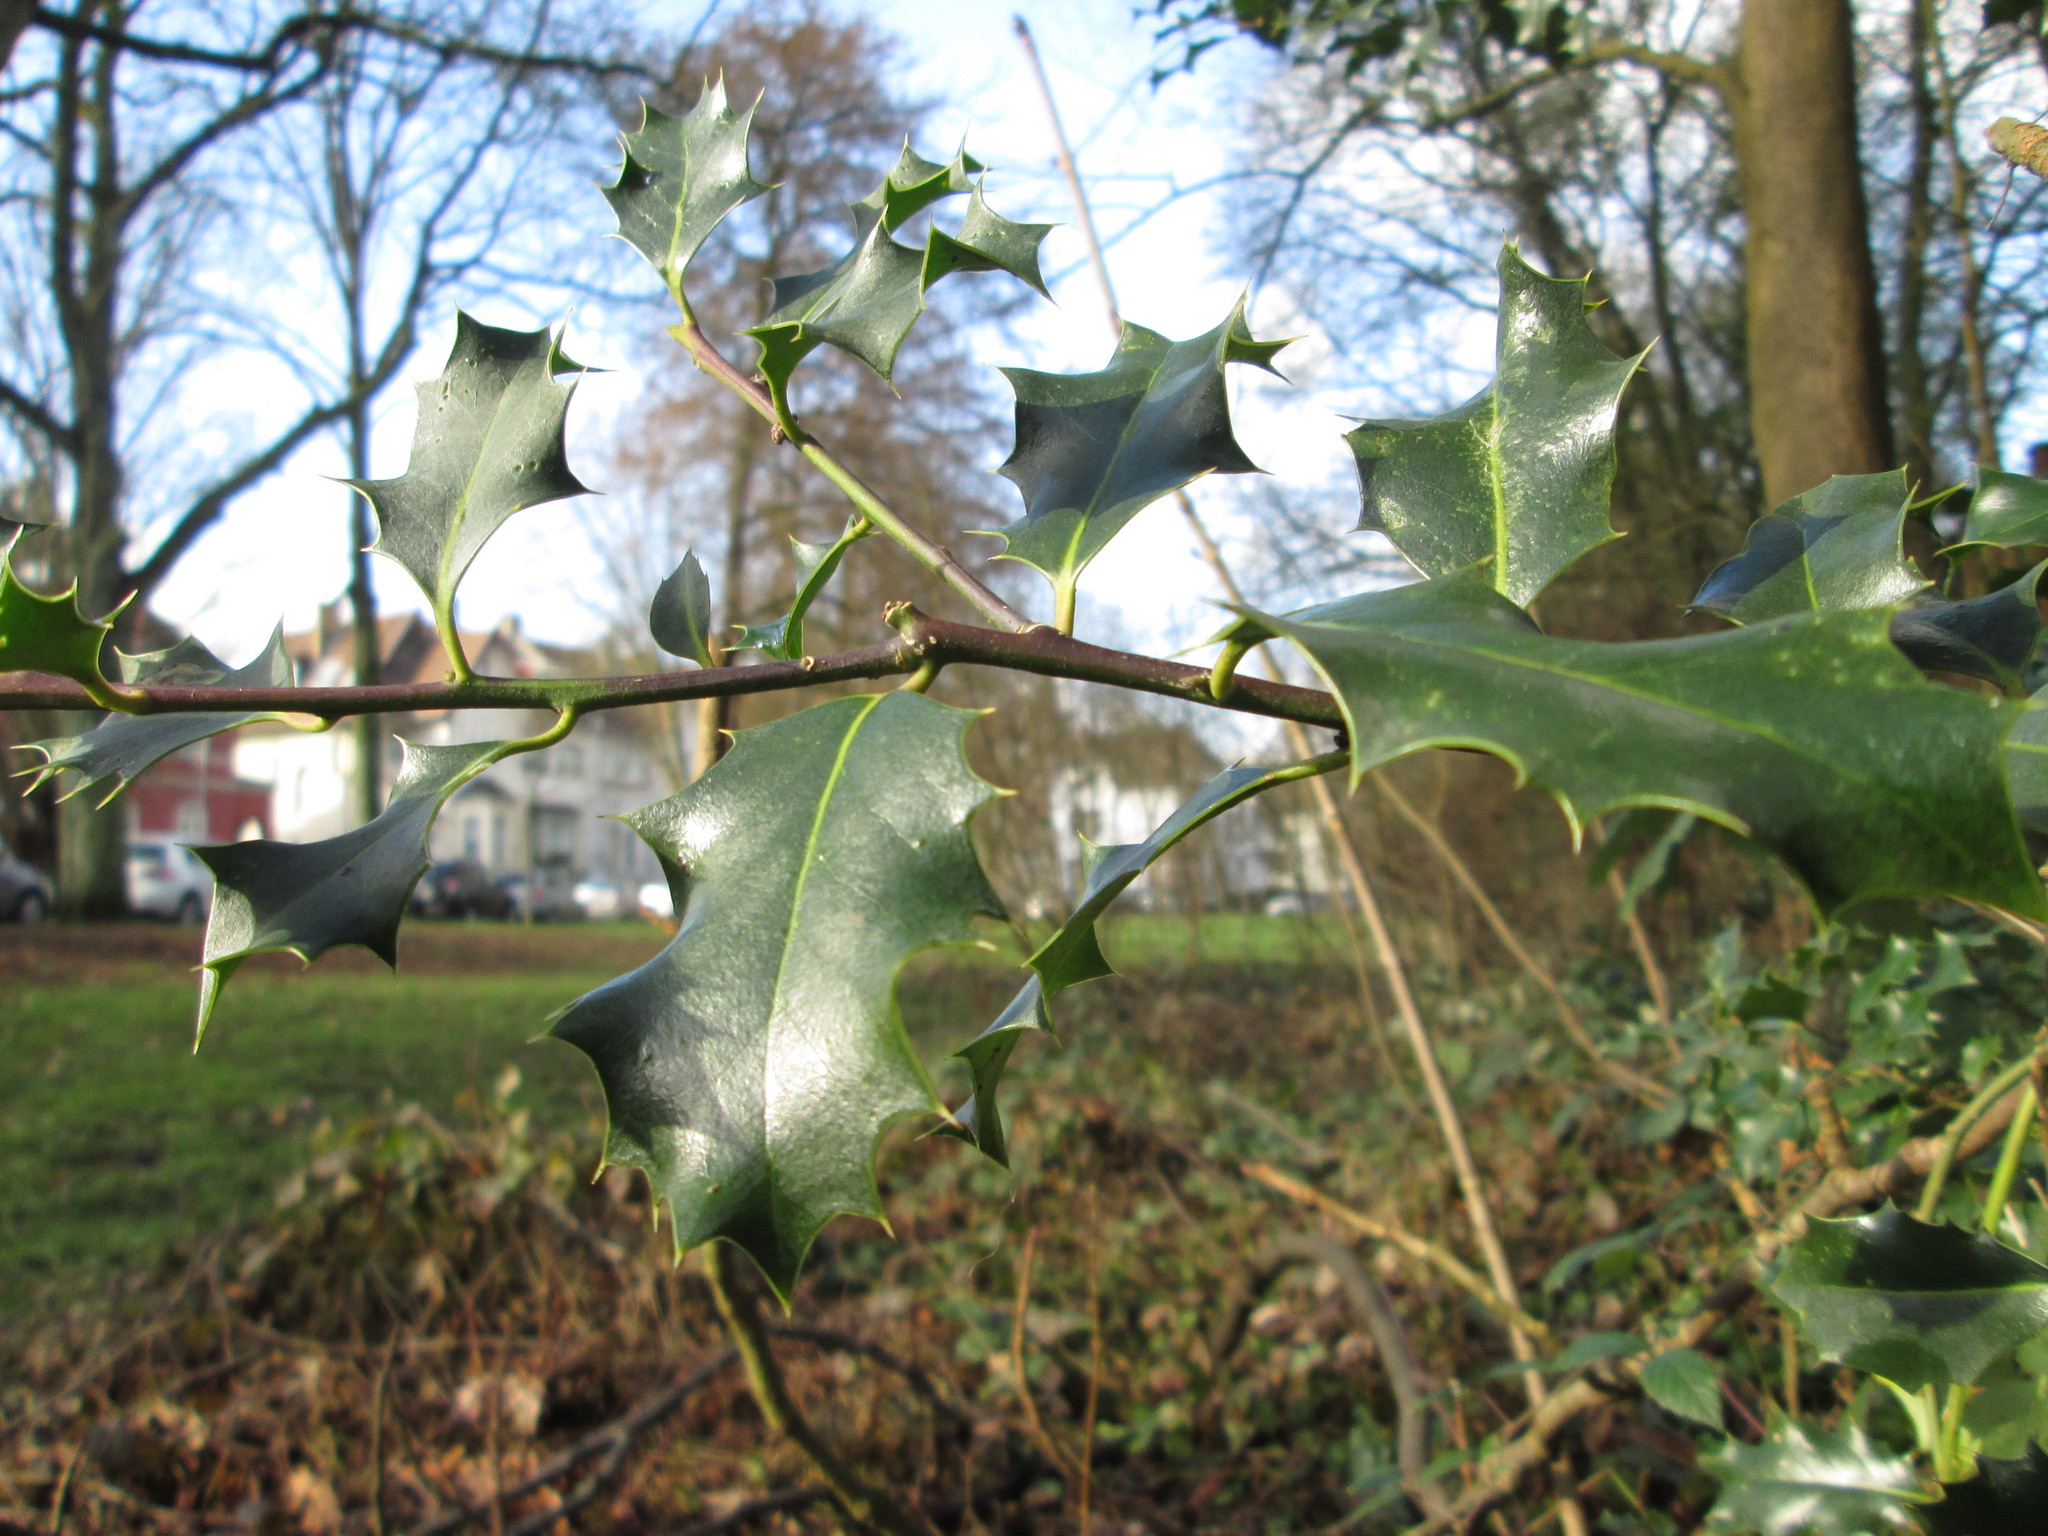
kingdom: Plantae
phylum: Tracheophyta
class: Magnoliopsida
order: Aquifoliales
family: Aquifoliaceae
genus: Ilex
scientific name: Ilex aquifolium
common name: English holly
